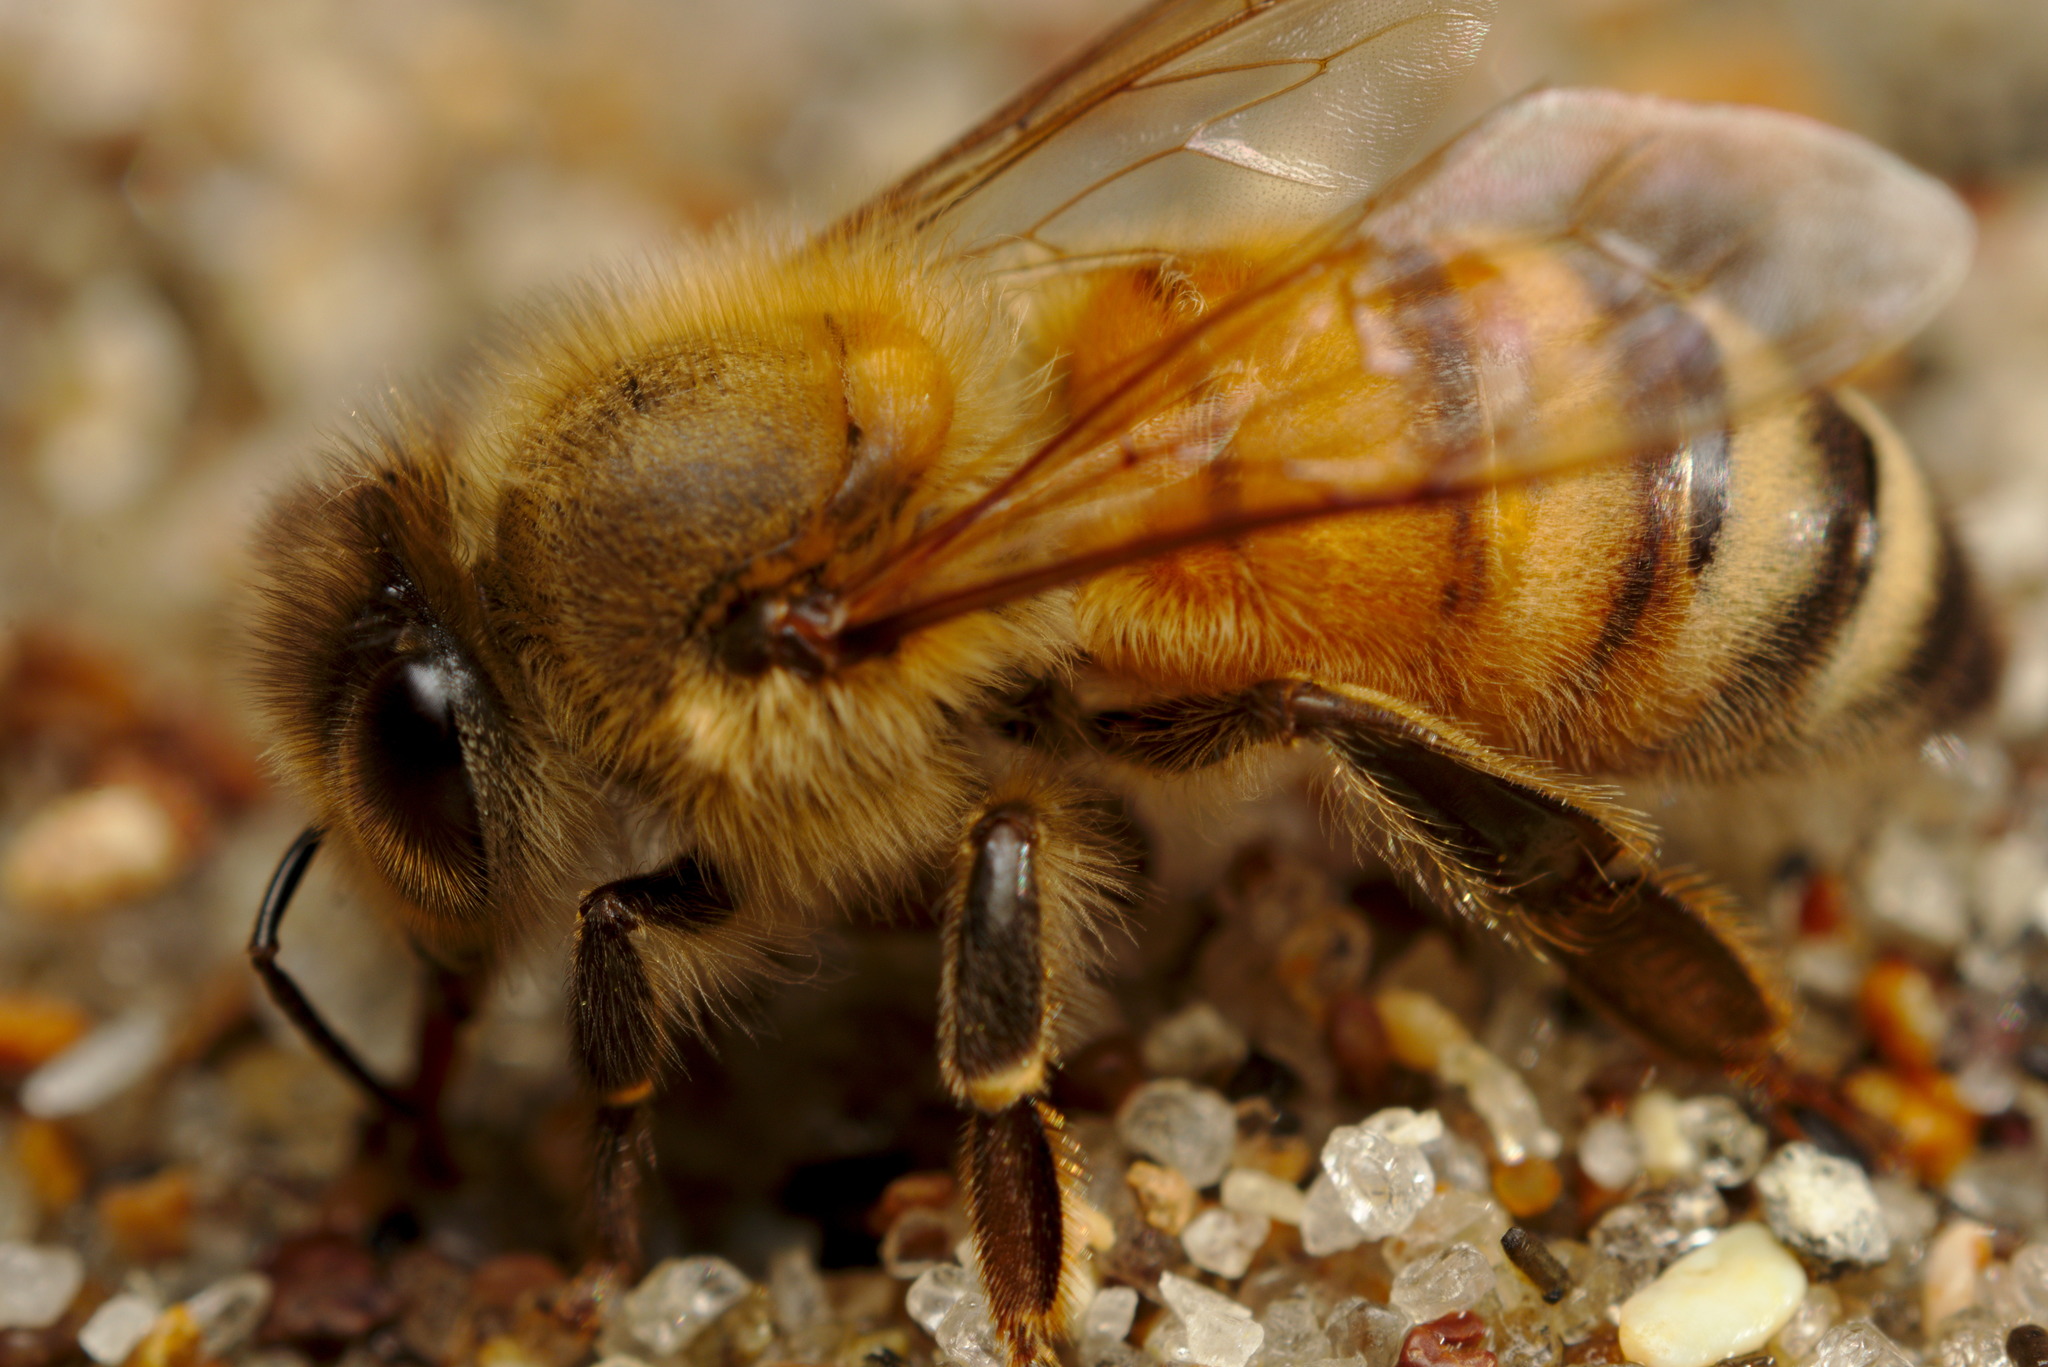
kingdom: Animalia
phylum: Arthropoda
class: Insecta
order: Hymenoptera
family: Apidae
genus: Apis
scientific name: Apis mellifera
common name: Honey bee
